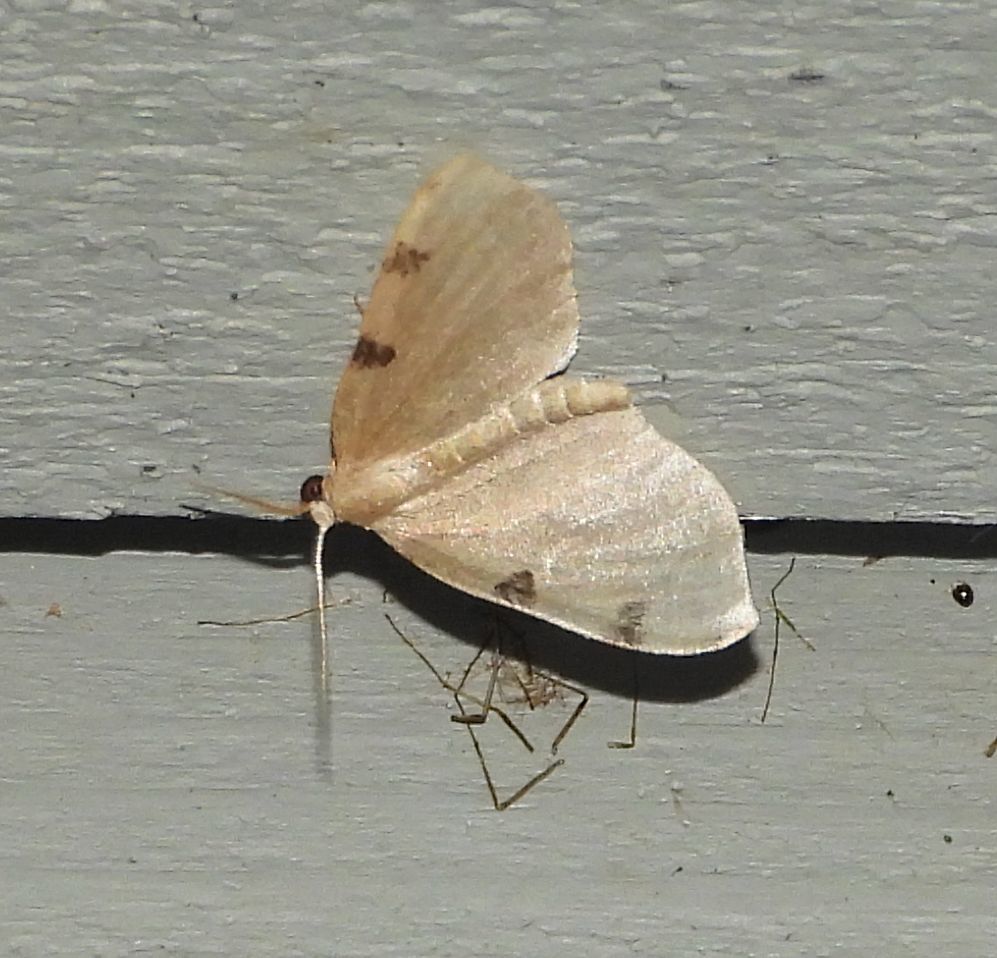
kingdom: Animalia
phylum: Arthropoda
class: Insecta
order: Lepidoptera
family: Geometridae
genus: Heterophleps
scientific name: Heterophleps triguttaria
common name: Three-spotted fillip
